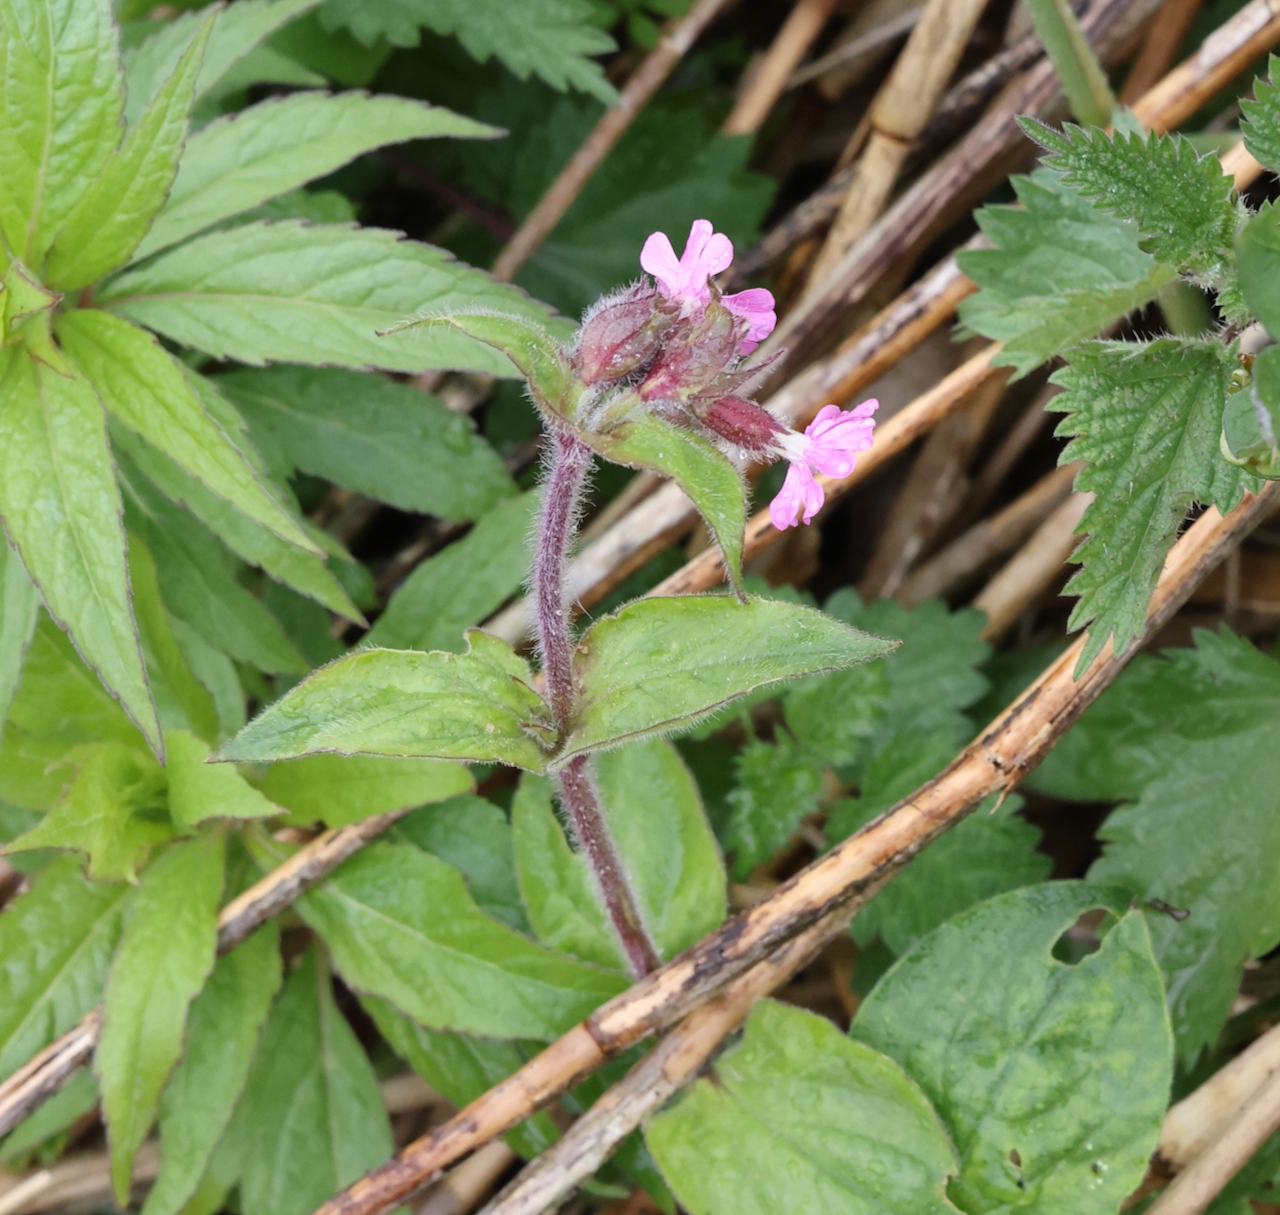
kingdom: Plantae
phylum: Tracheophyta
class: Magnoliopsida
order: Caryophyllales
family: Caryophyllaceae
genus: Silene
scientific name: Silene dioica
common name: Red campion
